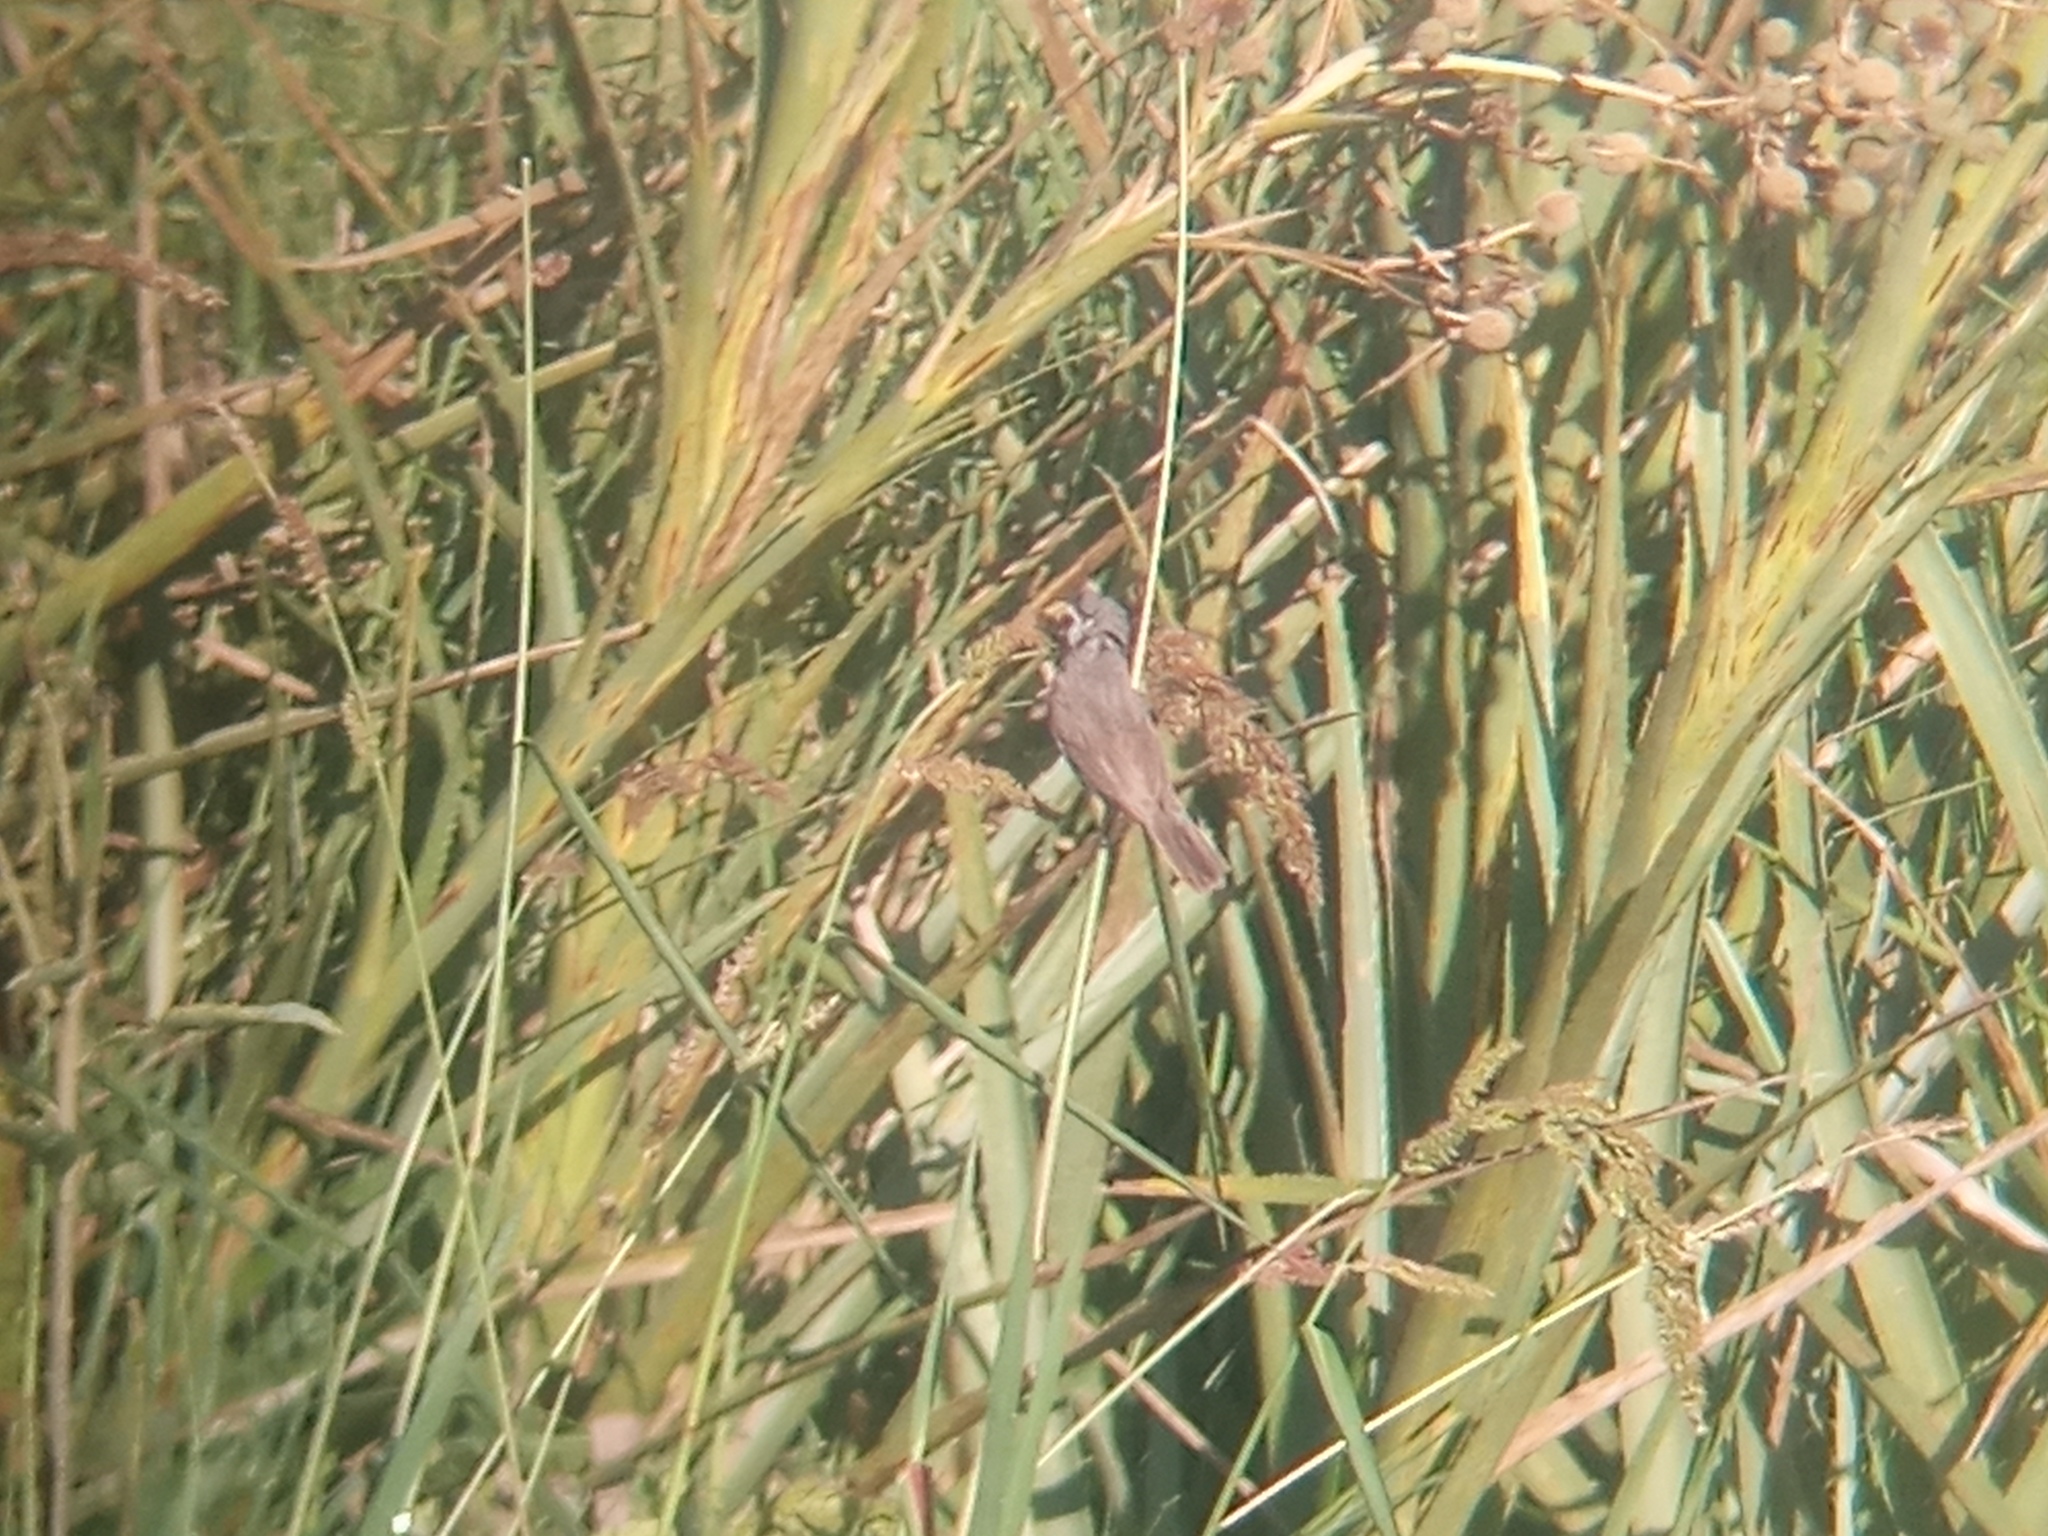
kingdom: Animalia
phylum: Chordata
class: Aves
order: Passeriformes
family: Thraupidae
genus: Sporophila
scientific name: Sporophila caerulescens
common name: Double-collared seedeater
